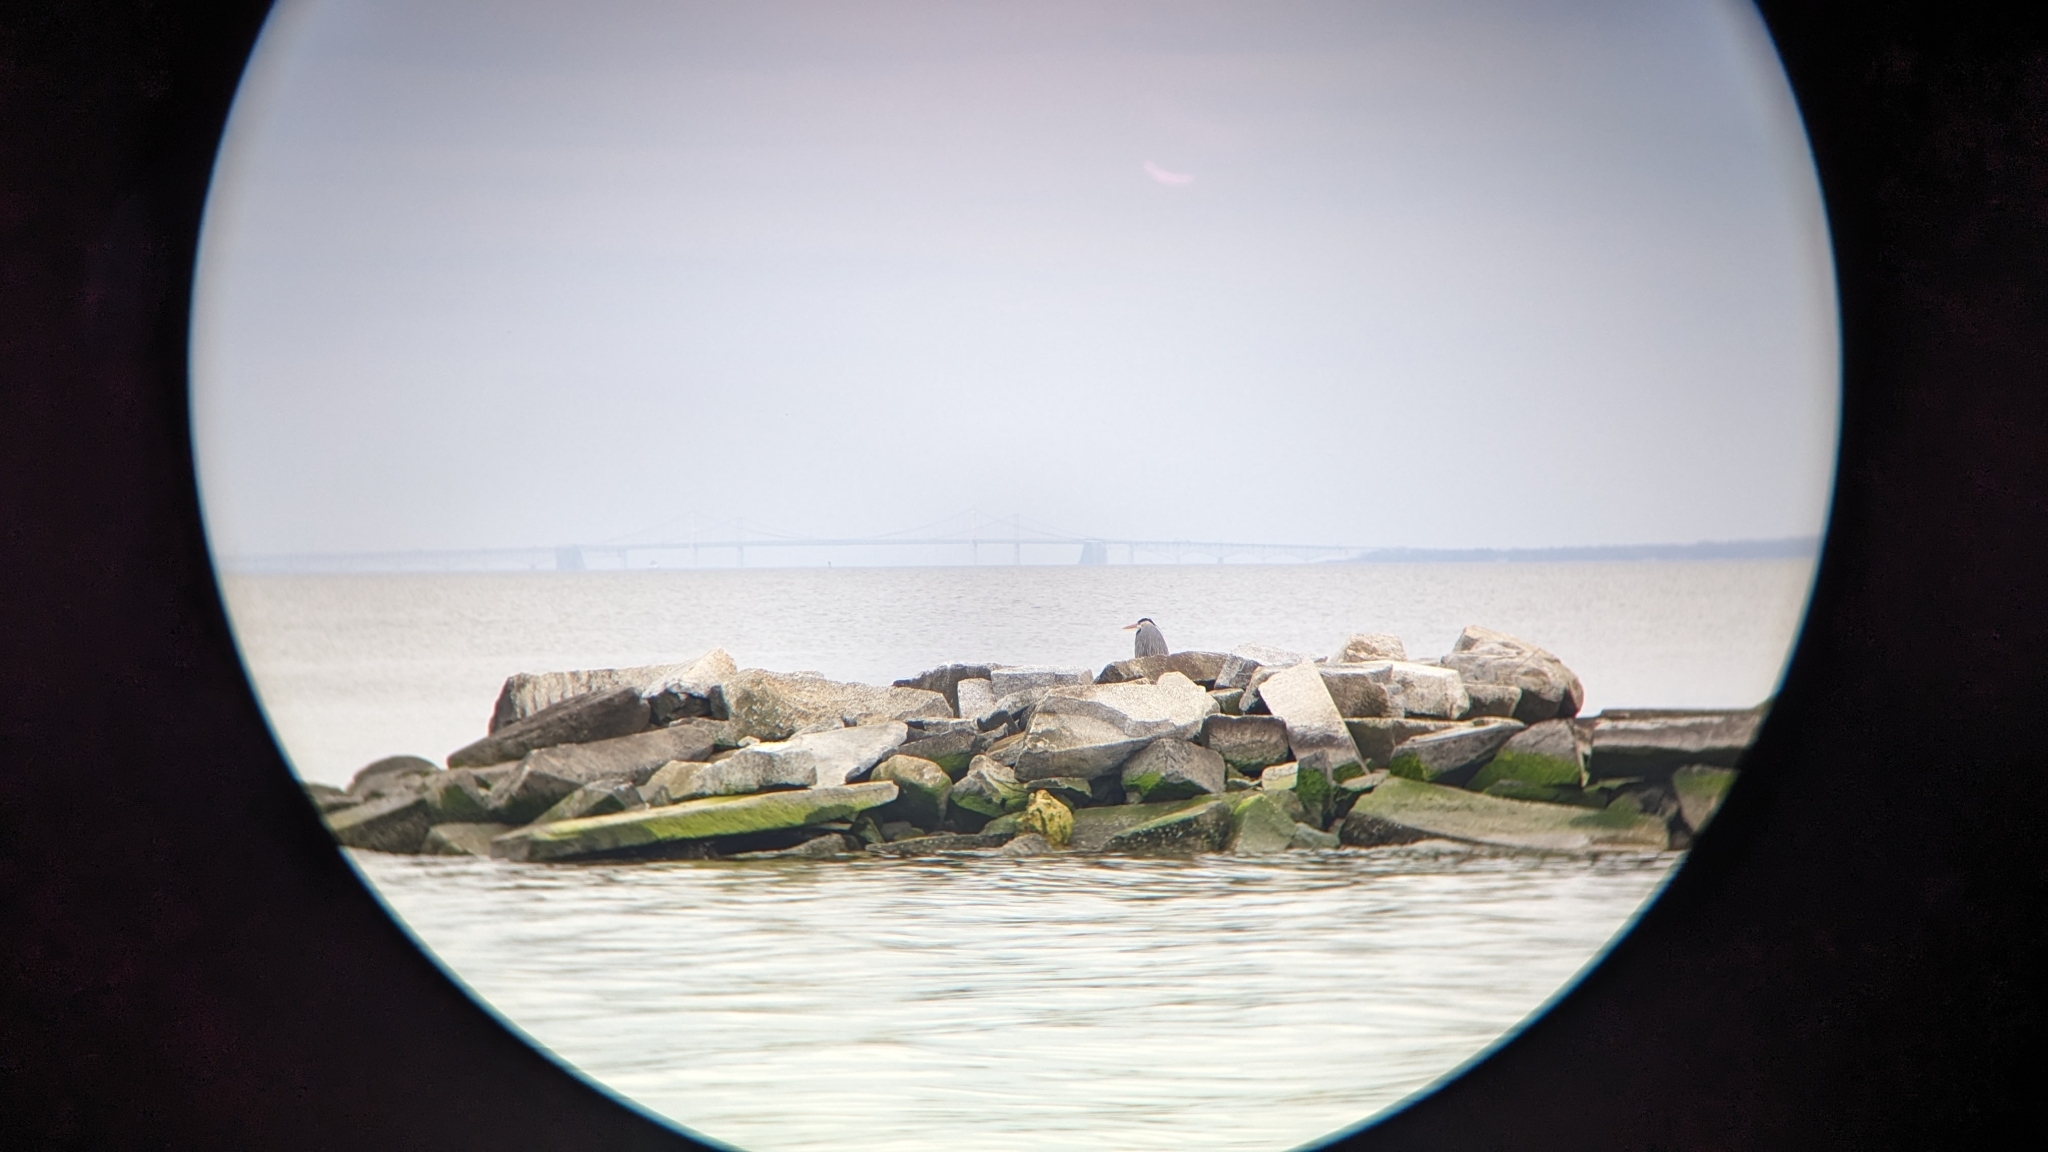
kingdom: Animalia
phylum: Chordata
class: Aves
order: Pelecaniformes
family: Ardeidae
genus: Ardea
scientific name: Ardea herodias
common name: Great blue heron
